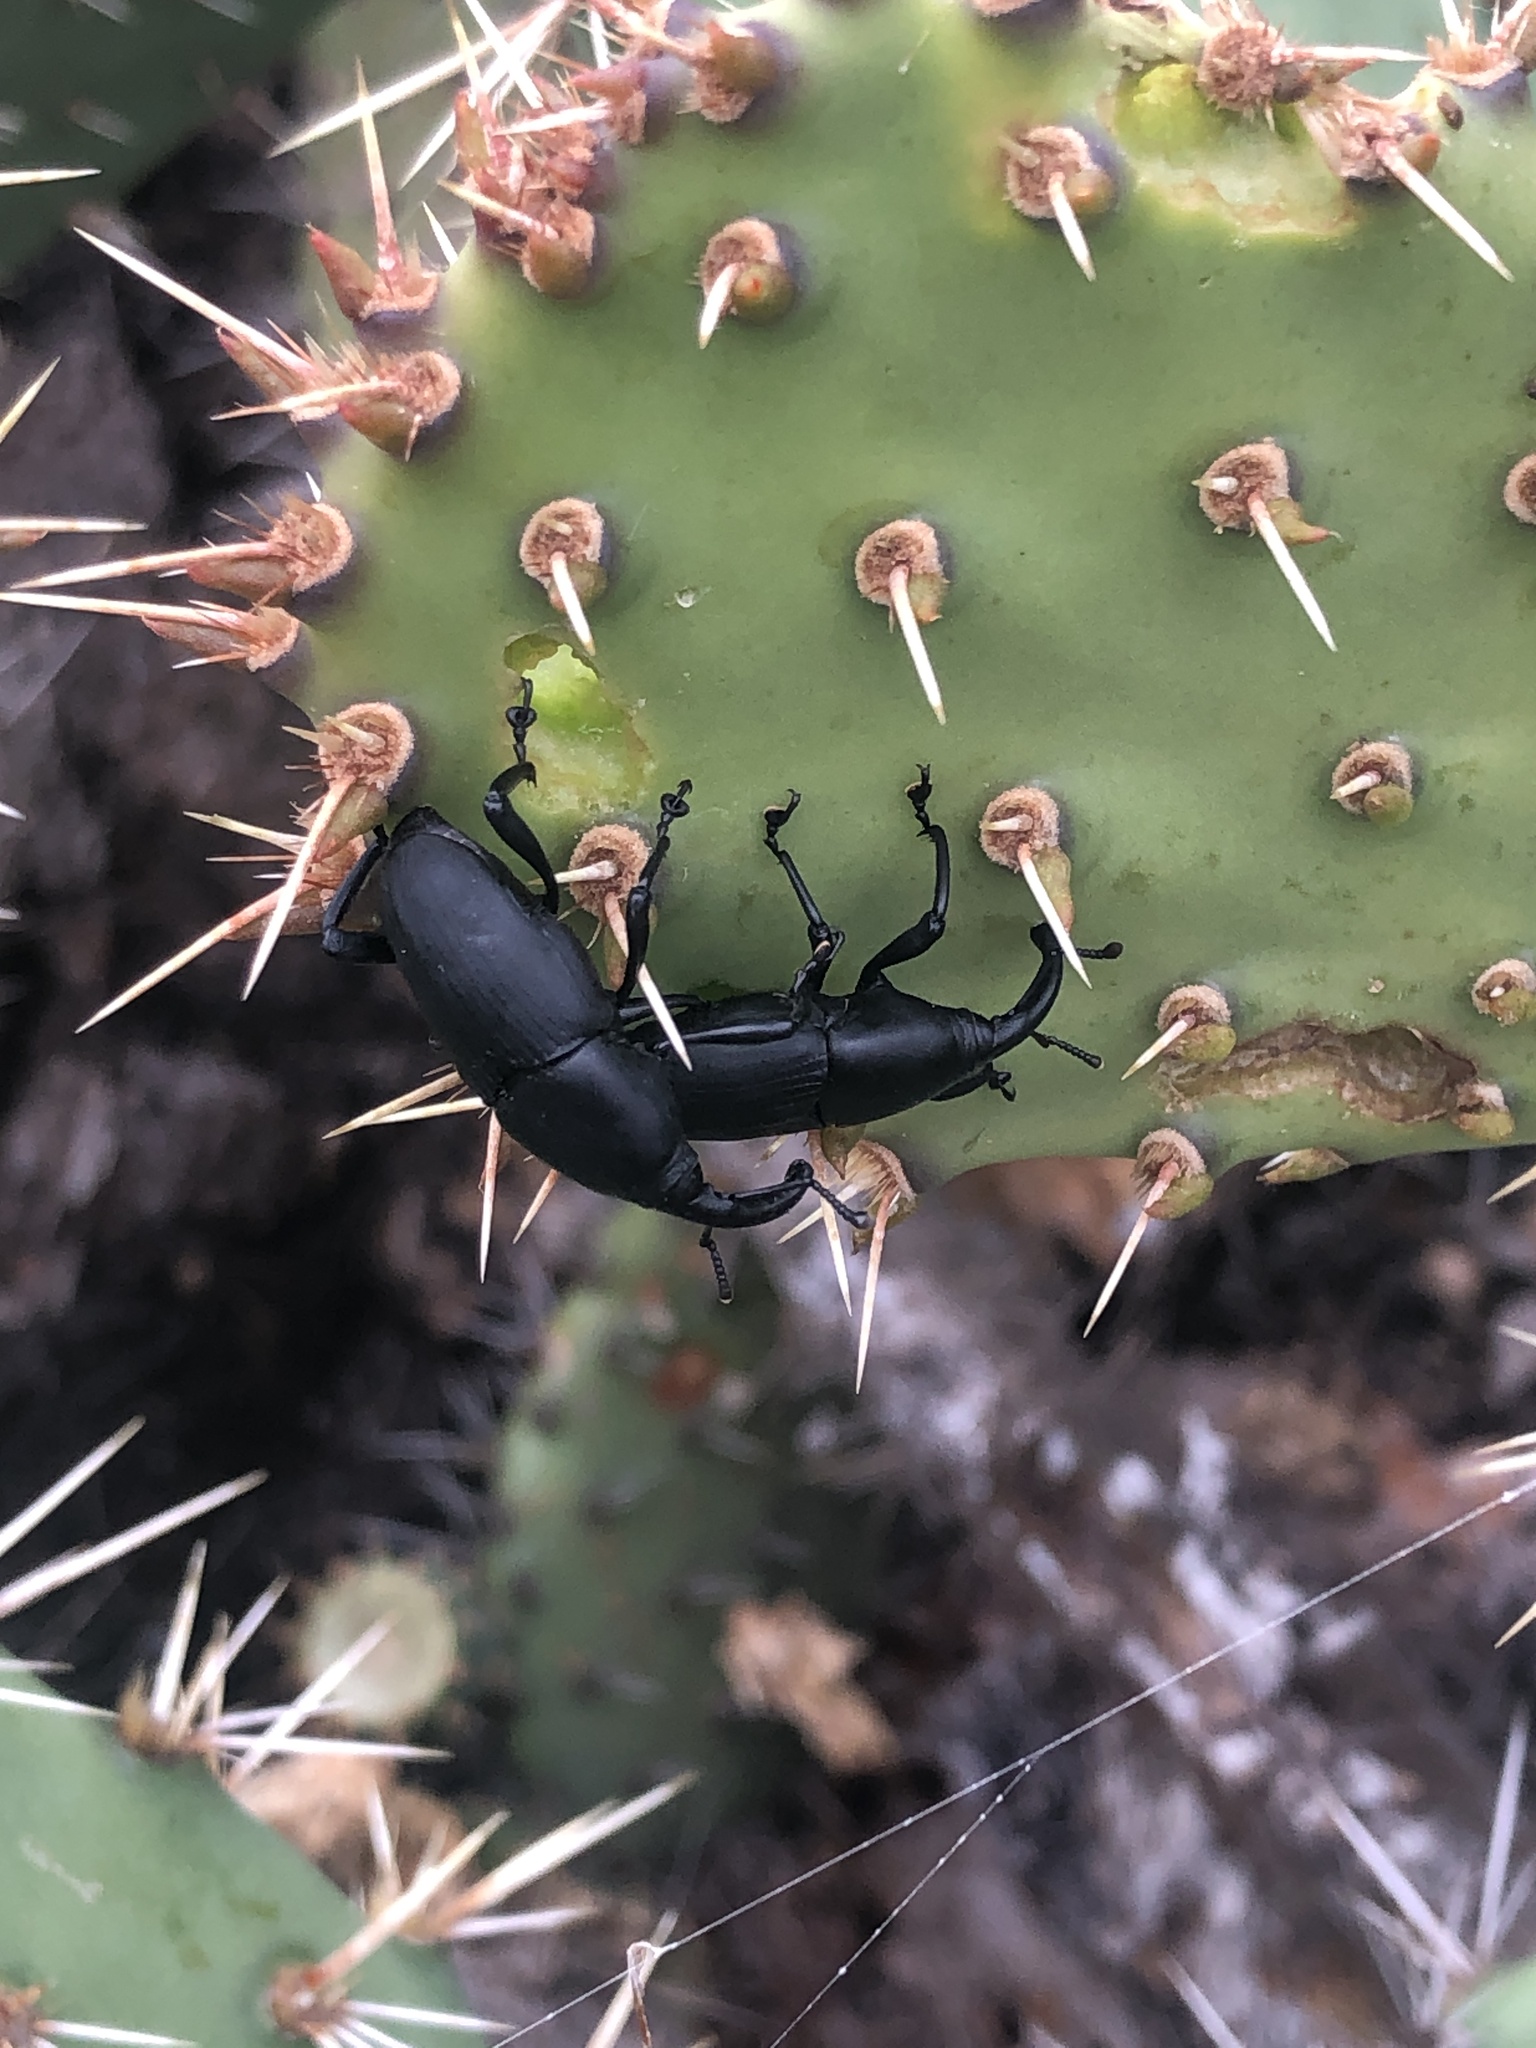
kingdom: Animalia
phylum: Arthropoda
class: Insecta
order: Coleoptera
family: Dryophthoridae
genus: Cactophagus
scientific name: Cactophagus spinolae
